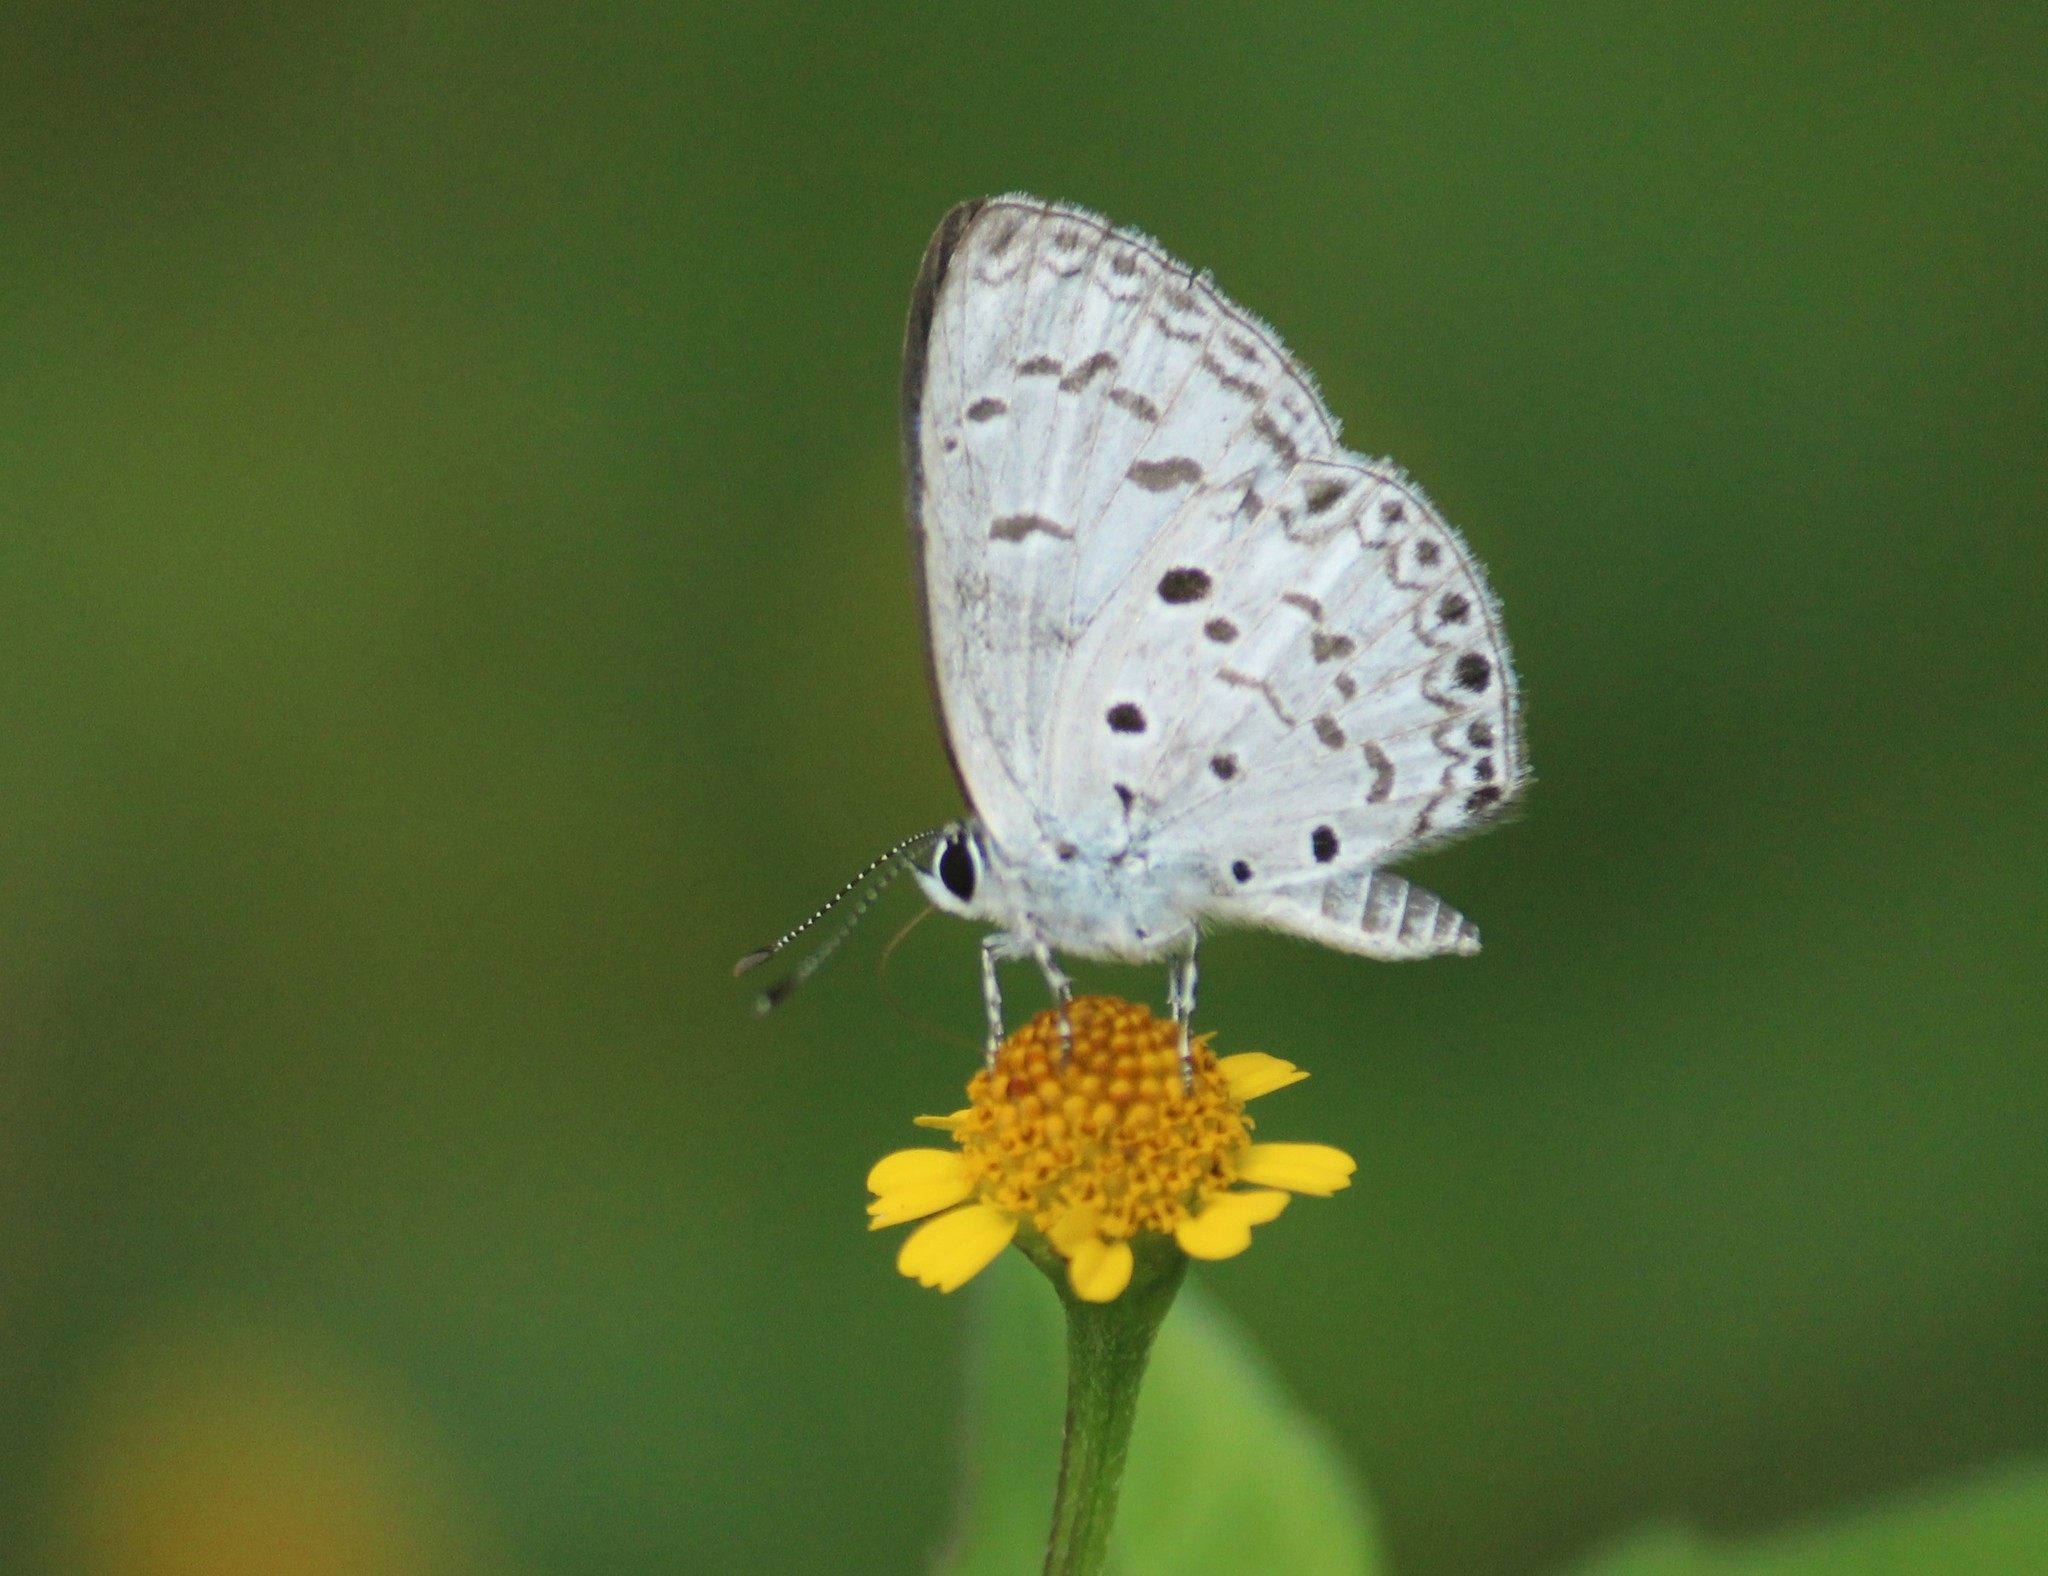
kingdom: Animalia
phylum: Arthropoda
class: Insecta
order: Lepidoptera
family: Lycaenidae
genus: Acytolepis
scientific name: Acytolepis puspa
